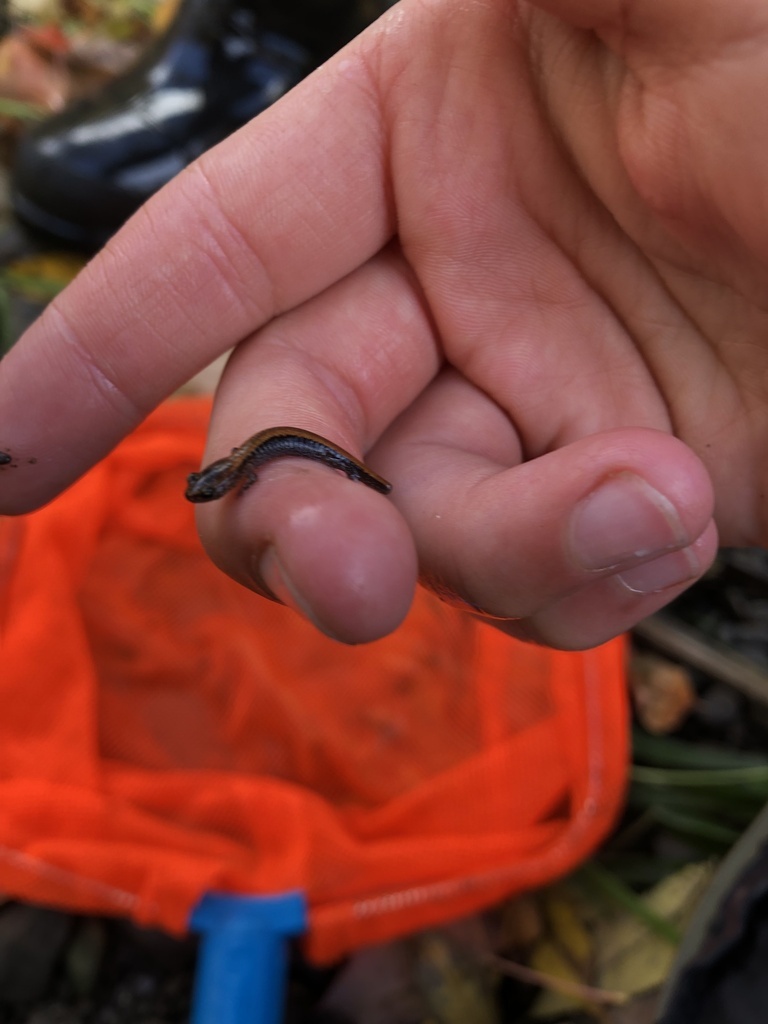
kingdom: Animalia
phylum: Chordata
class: Amphibia
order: Caudata
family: Plethodontidae
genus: Plethodon
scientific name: Plethodon cinereus
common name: Redback salamander
